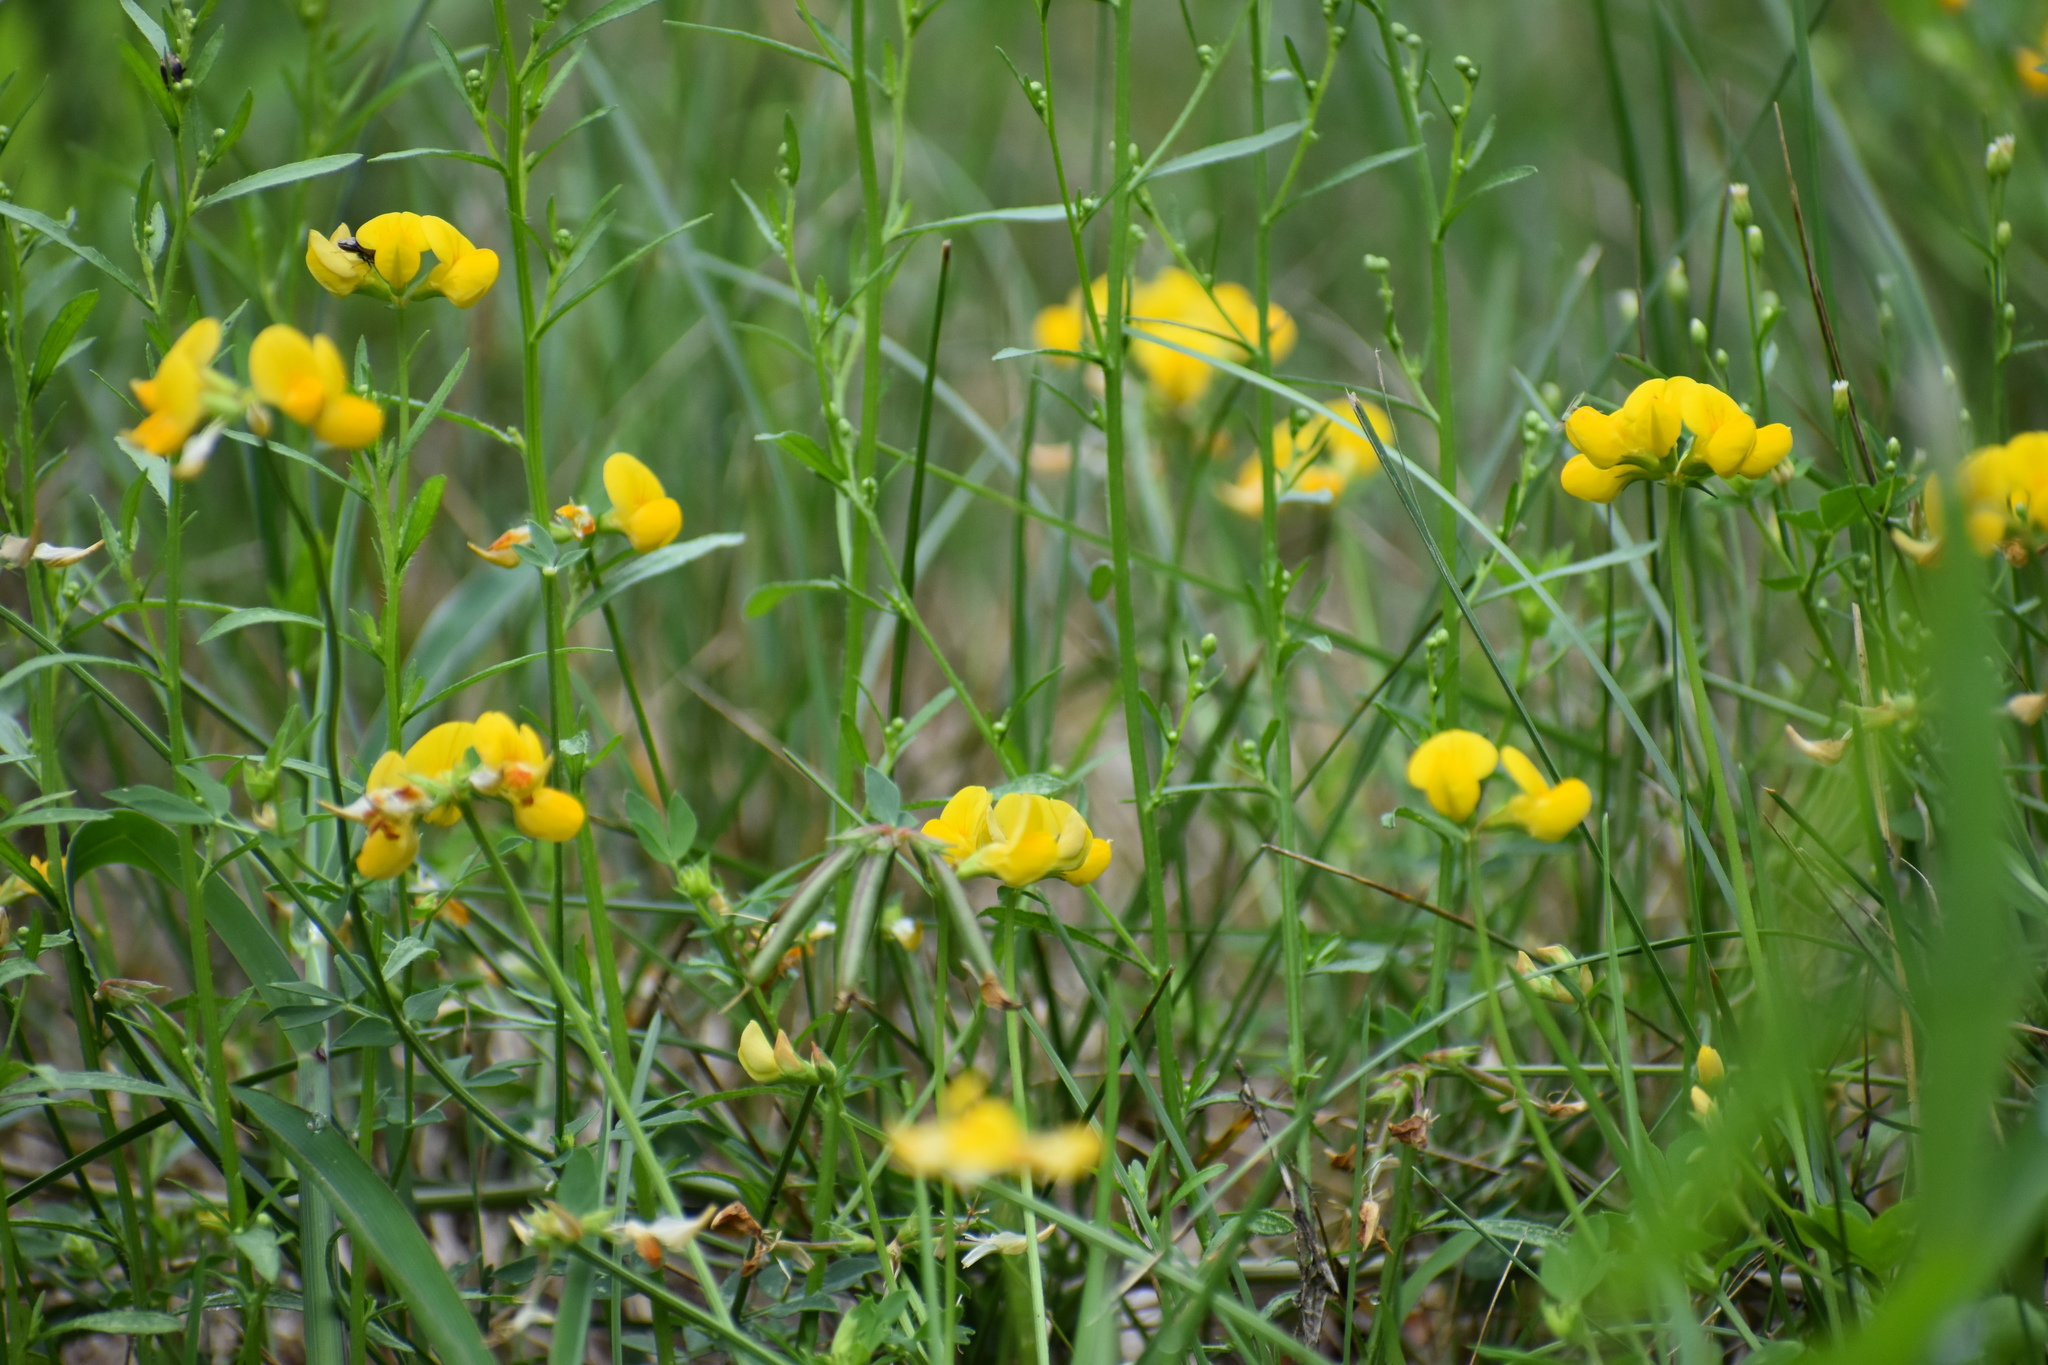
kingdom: Plantae
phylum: Tracheophyta
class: Magnoliopsida
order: Fabales
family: Fabaceae
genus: Lotus
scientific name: Lotus corniculatus
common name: Common bird's-foot-trefoil
